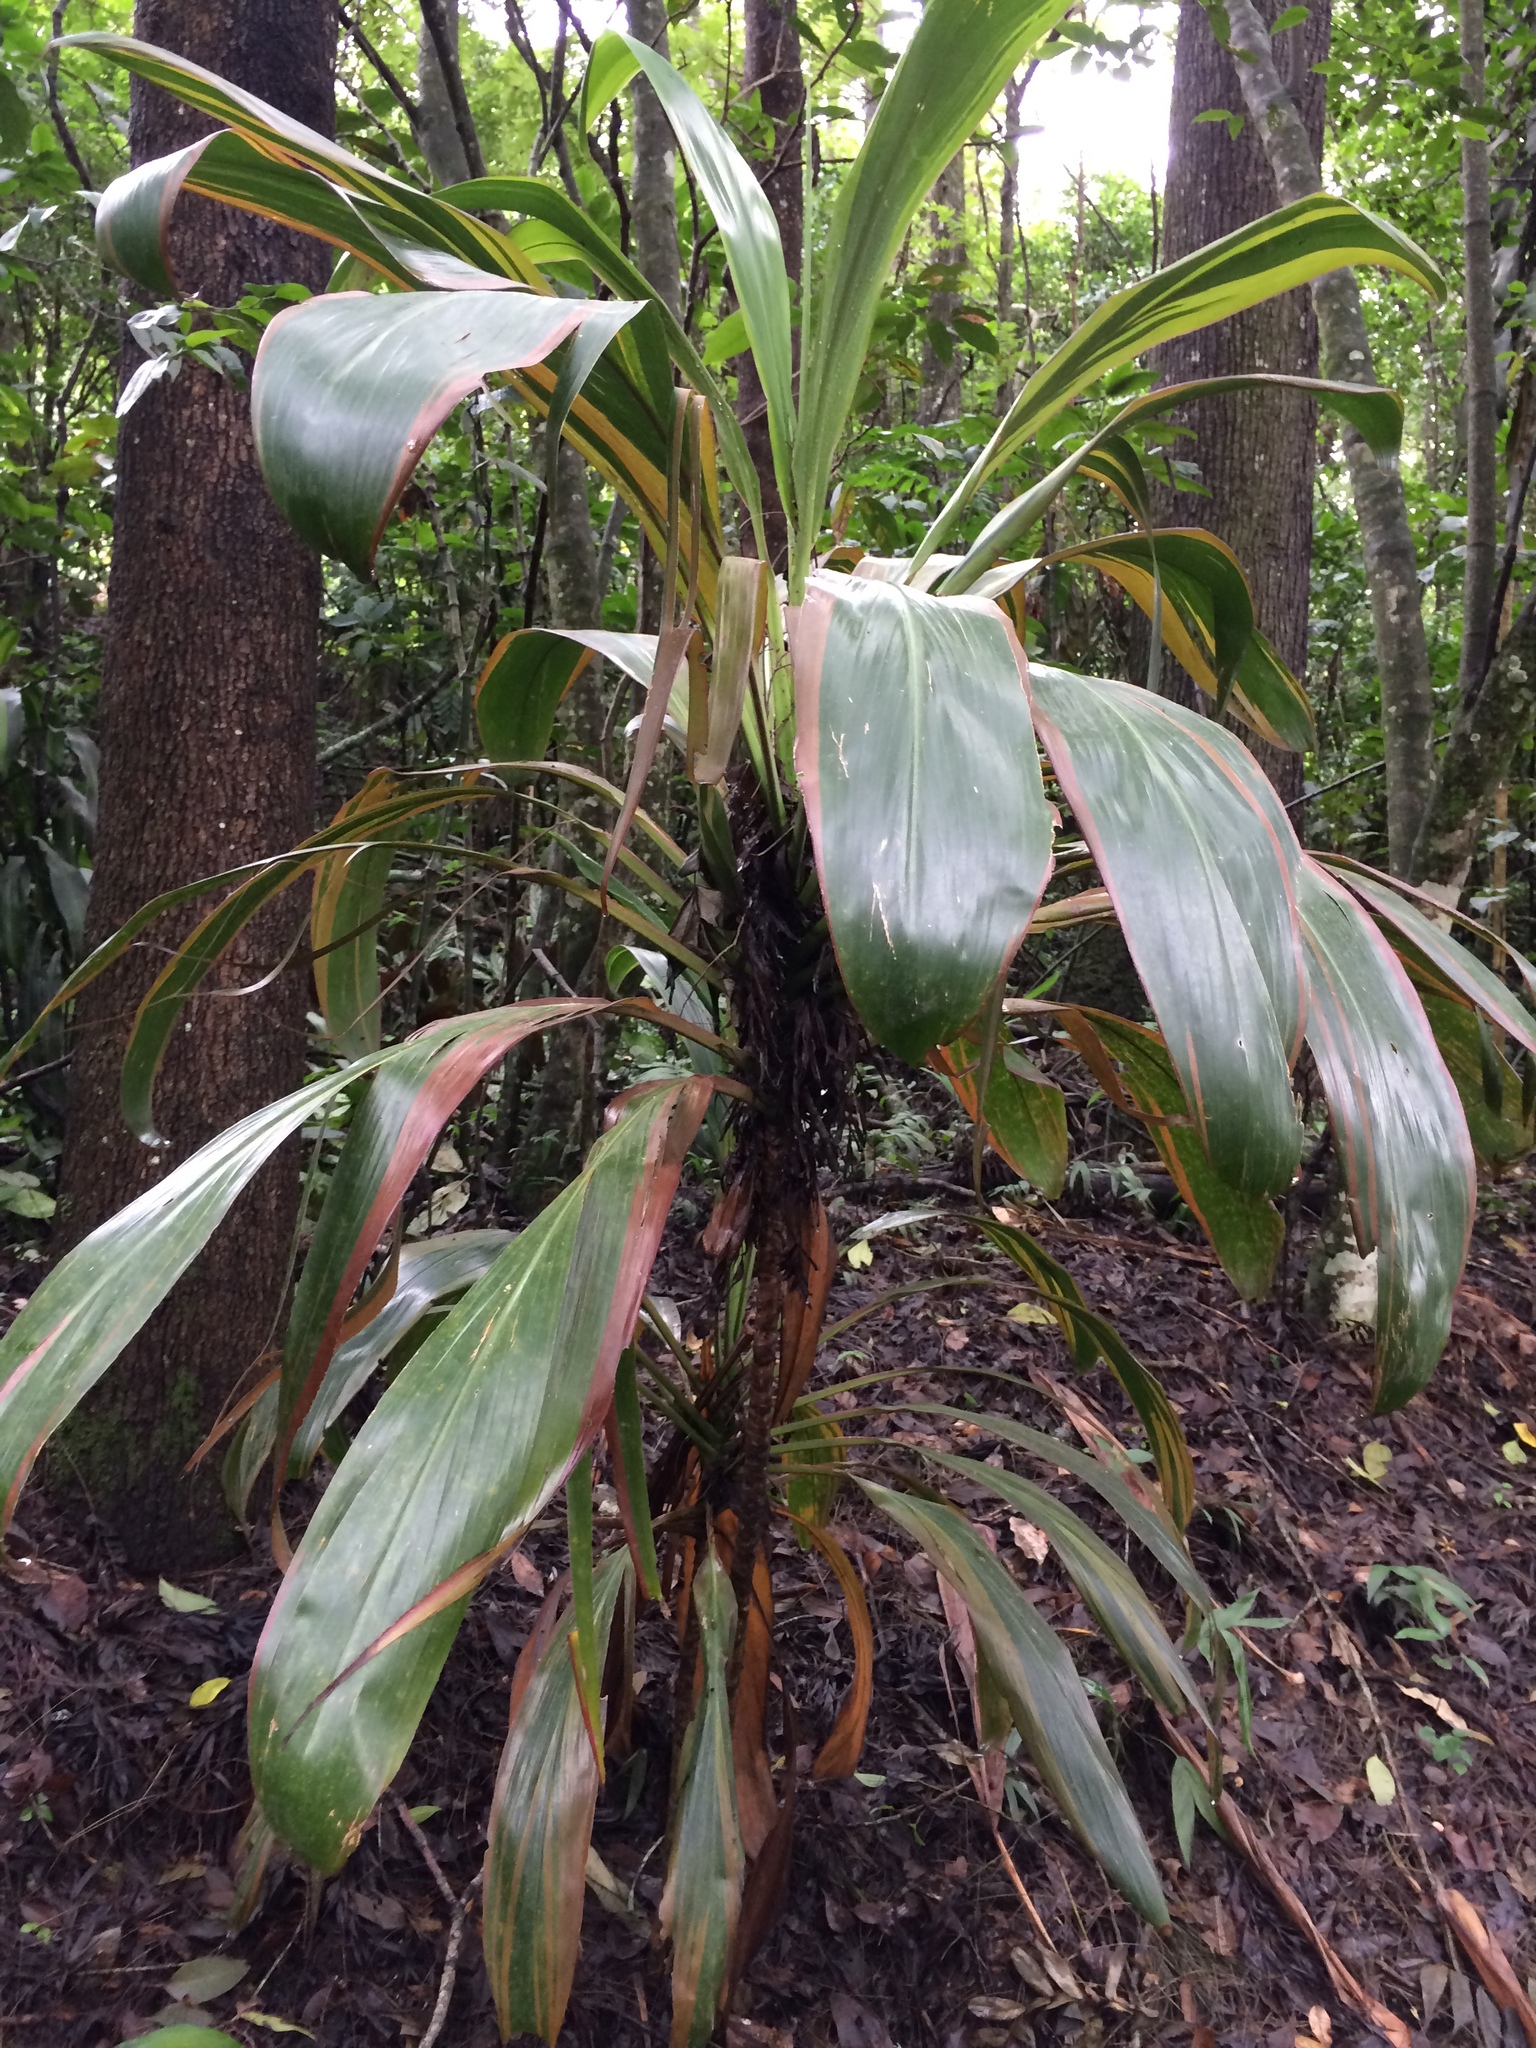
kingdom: Plantae
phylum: Tracheophyta
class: Liliopsida
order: Asparagales
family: Asparagaceae
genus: Cordyline
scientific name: Cordyline fruticosa
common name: Good-luck-plant
